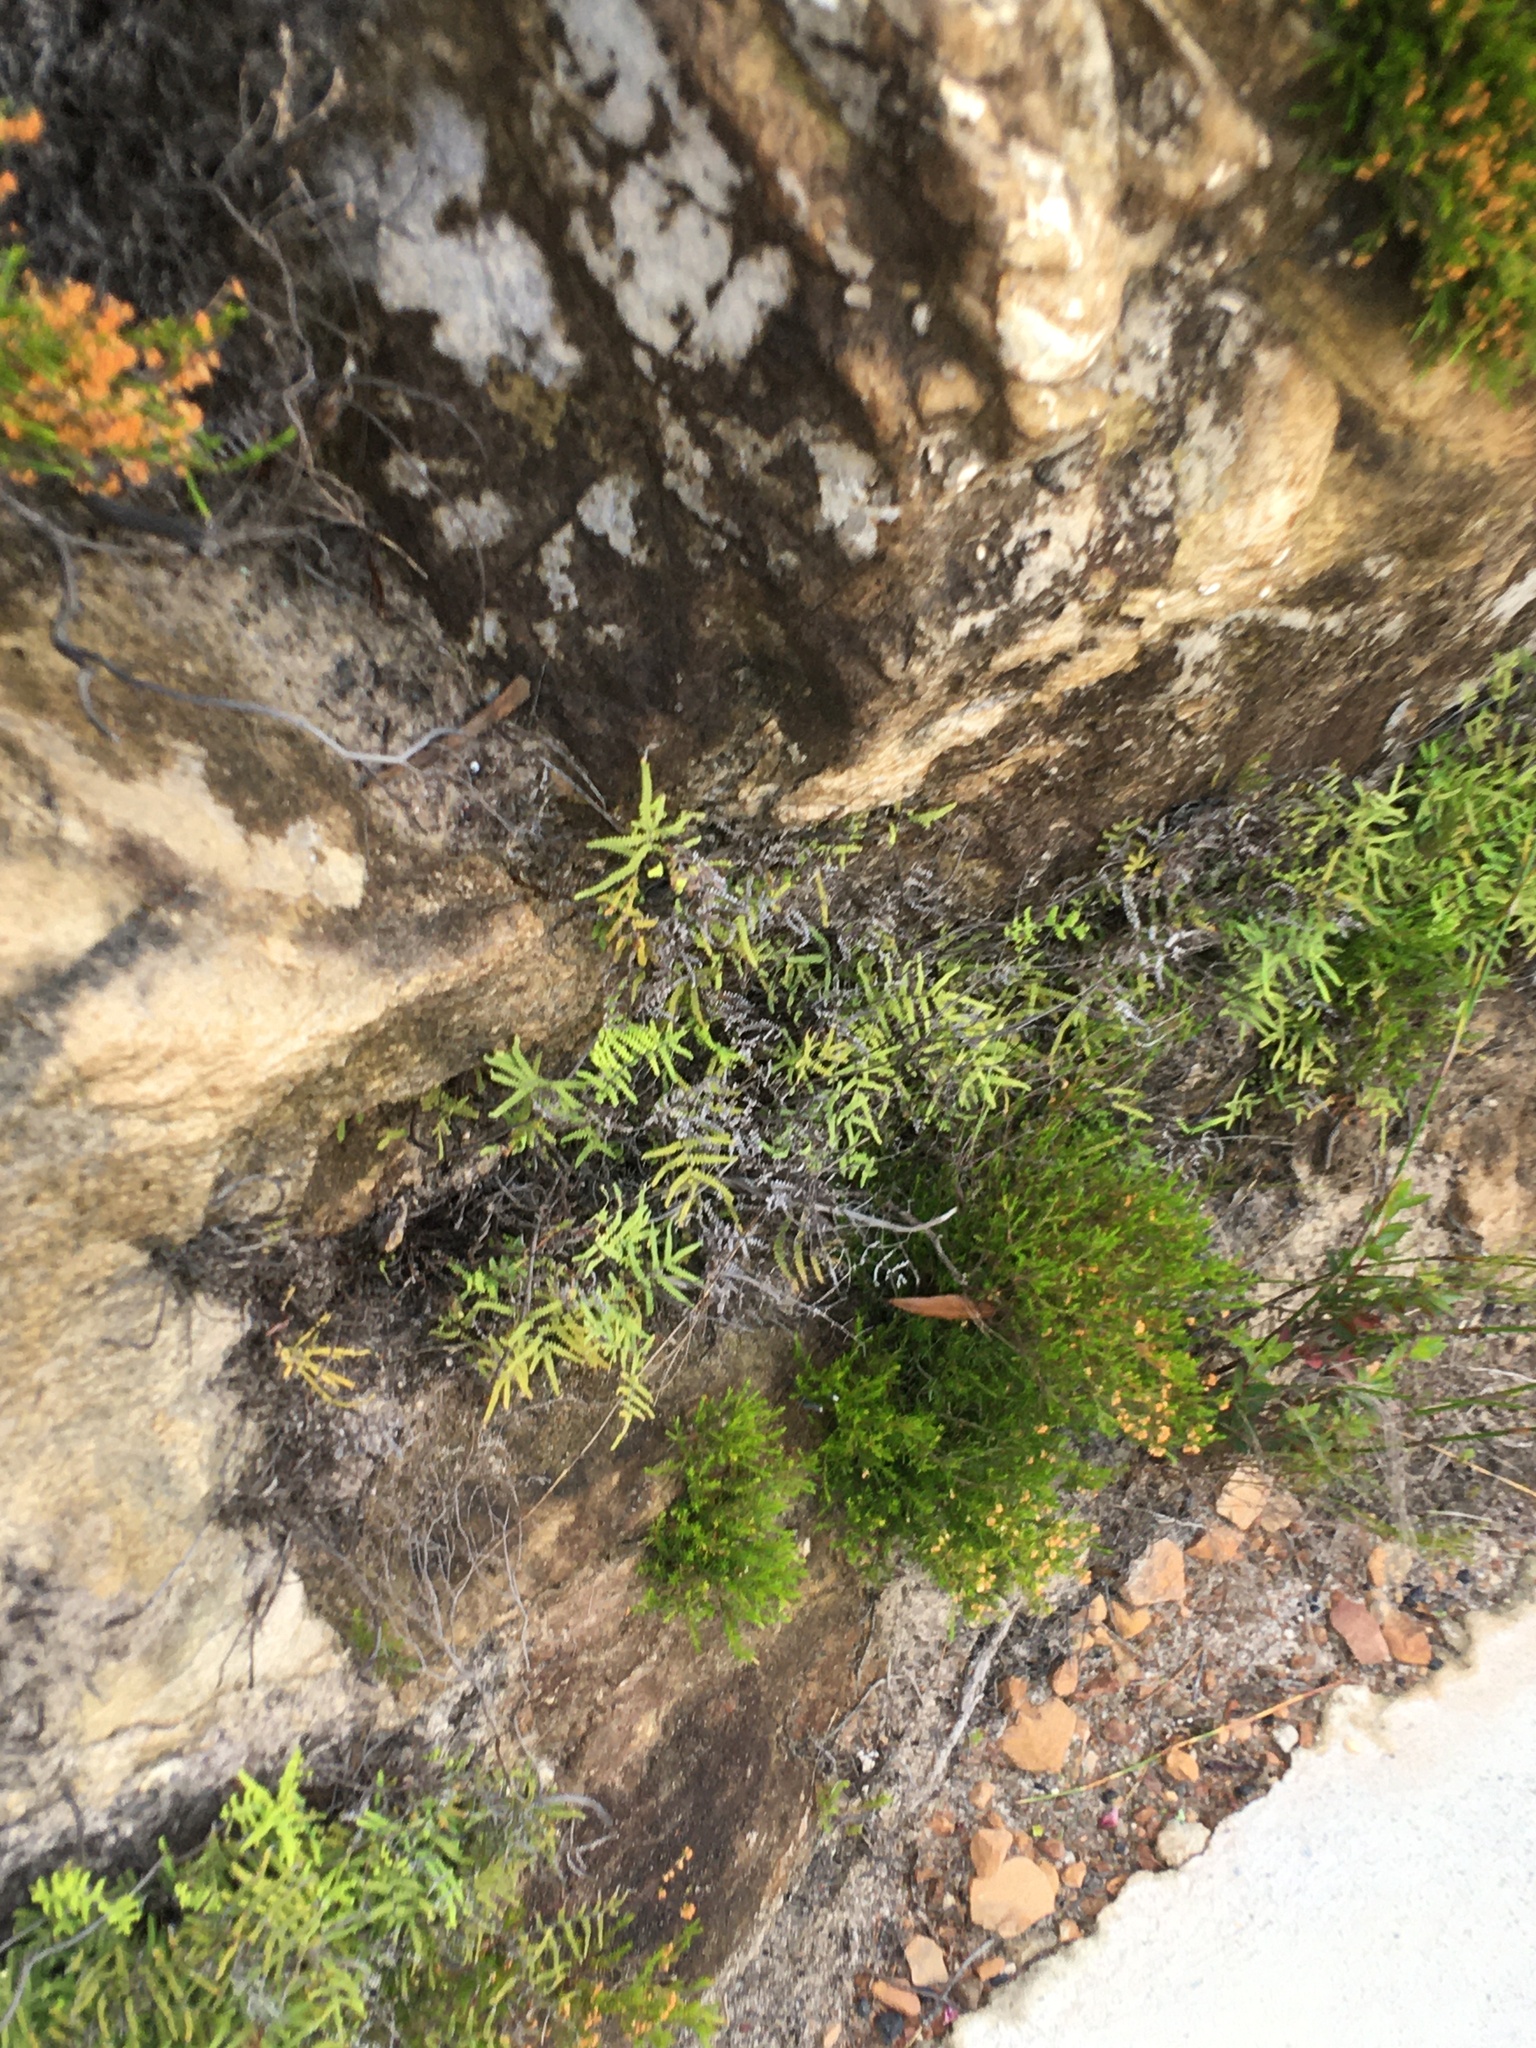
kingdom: Plantae
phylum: Tracheophyta
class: Polypodiopsida
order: Gleicheniales
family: Gleicheniaceae
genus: Gleichenia
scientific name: Gleichenia polypodioides
